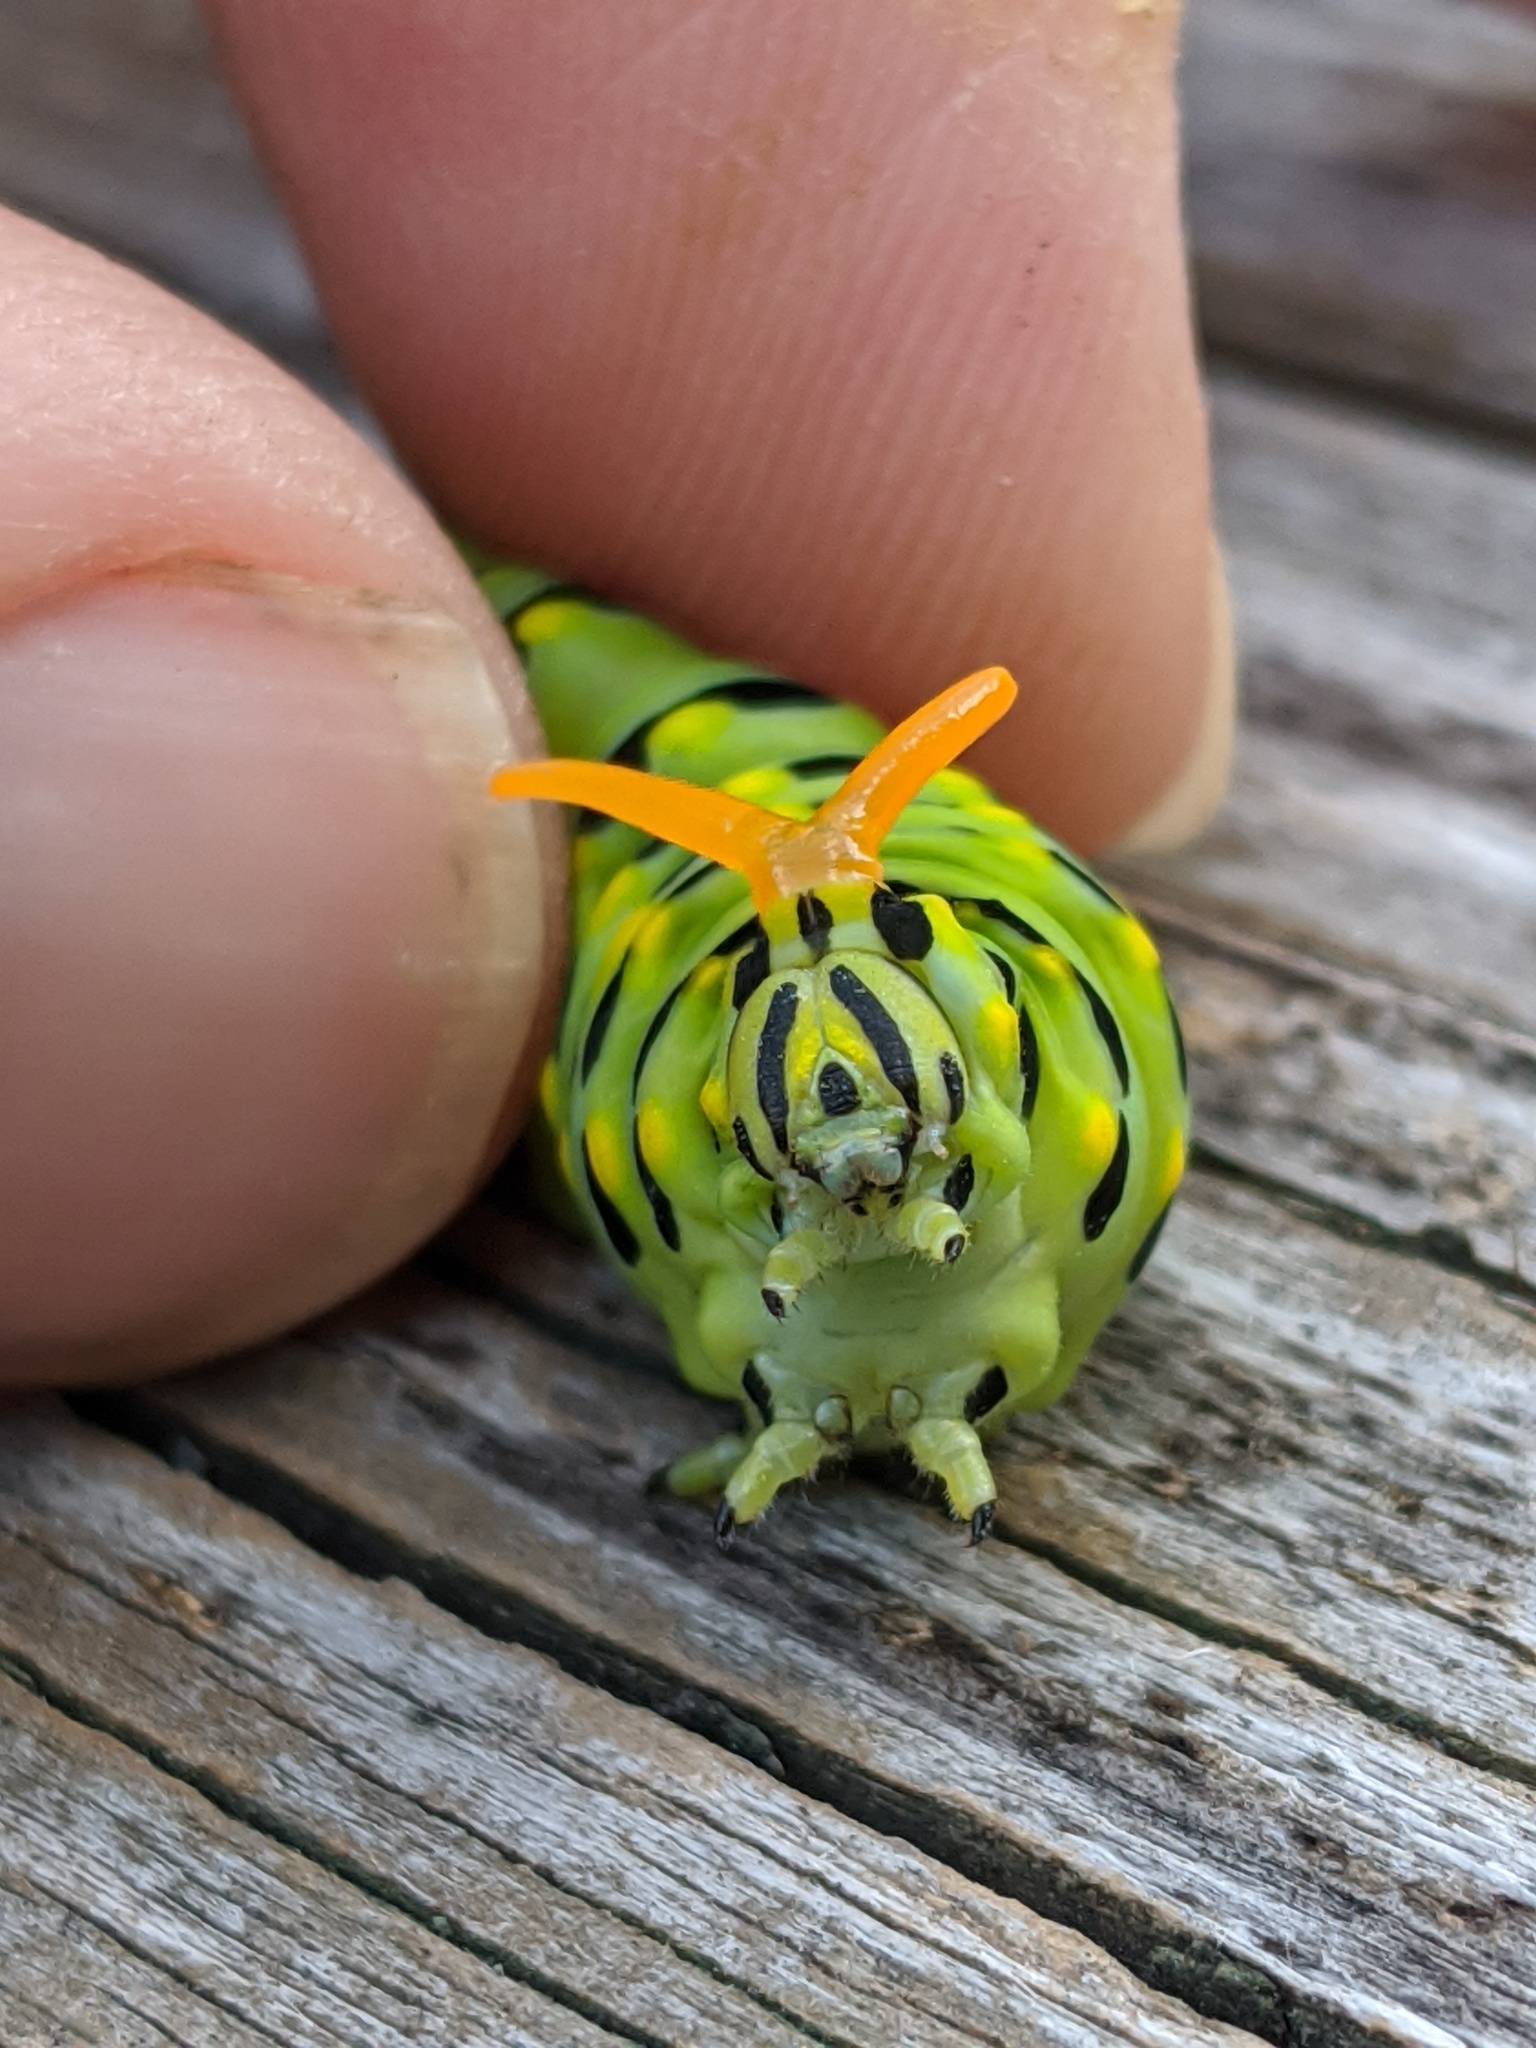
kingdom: Animalia
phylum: Arthropoda
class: Insecta
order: Lepidoptera
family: Papilionidae
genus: Papilio
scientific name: Papilio polyxenes
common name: Black swallowtail
